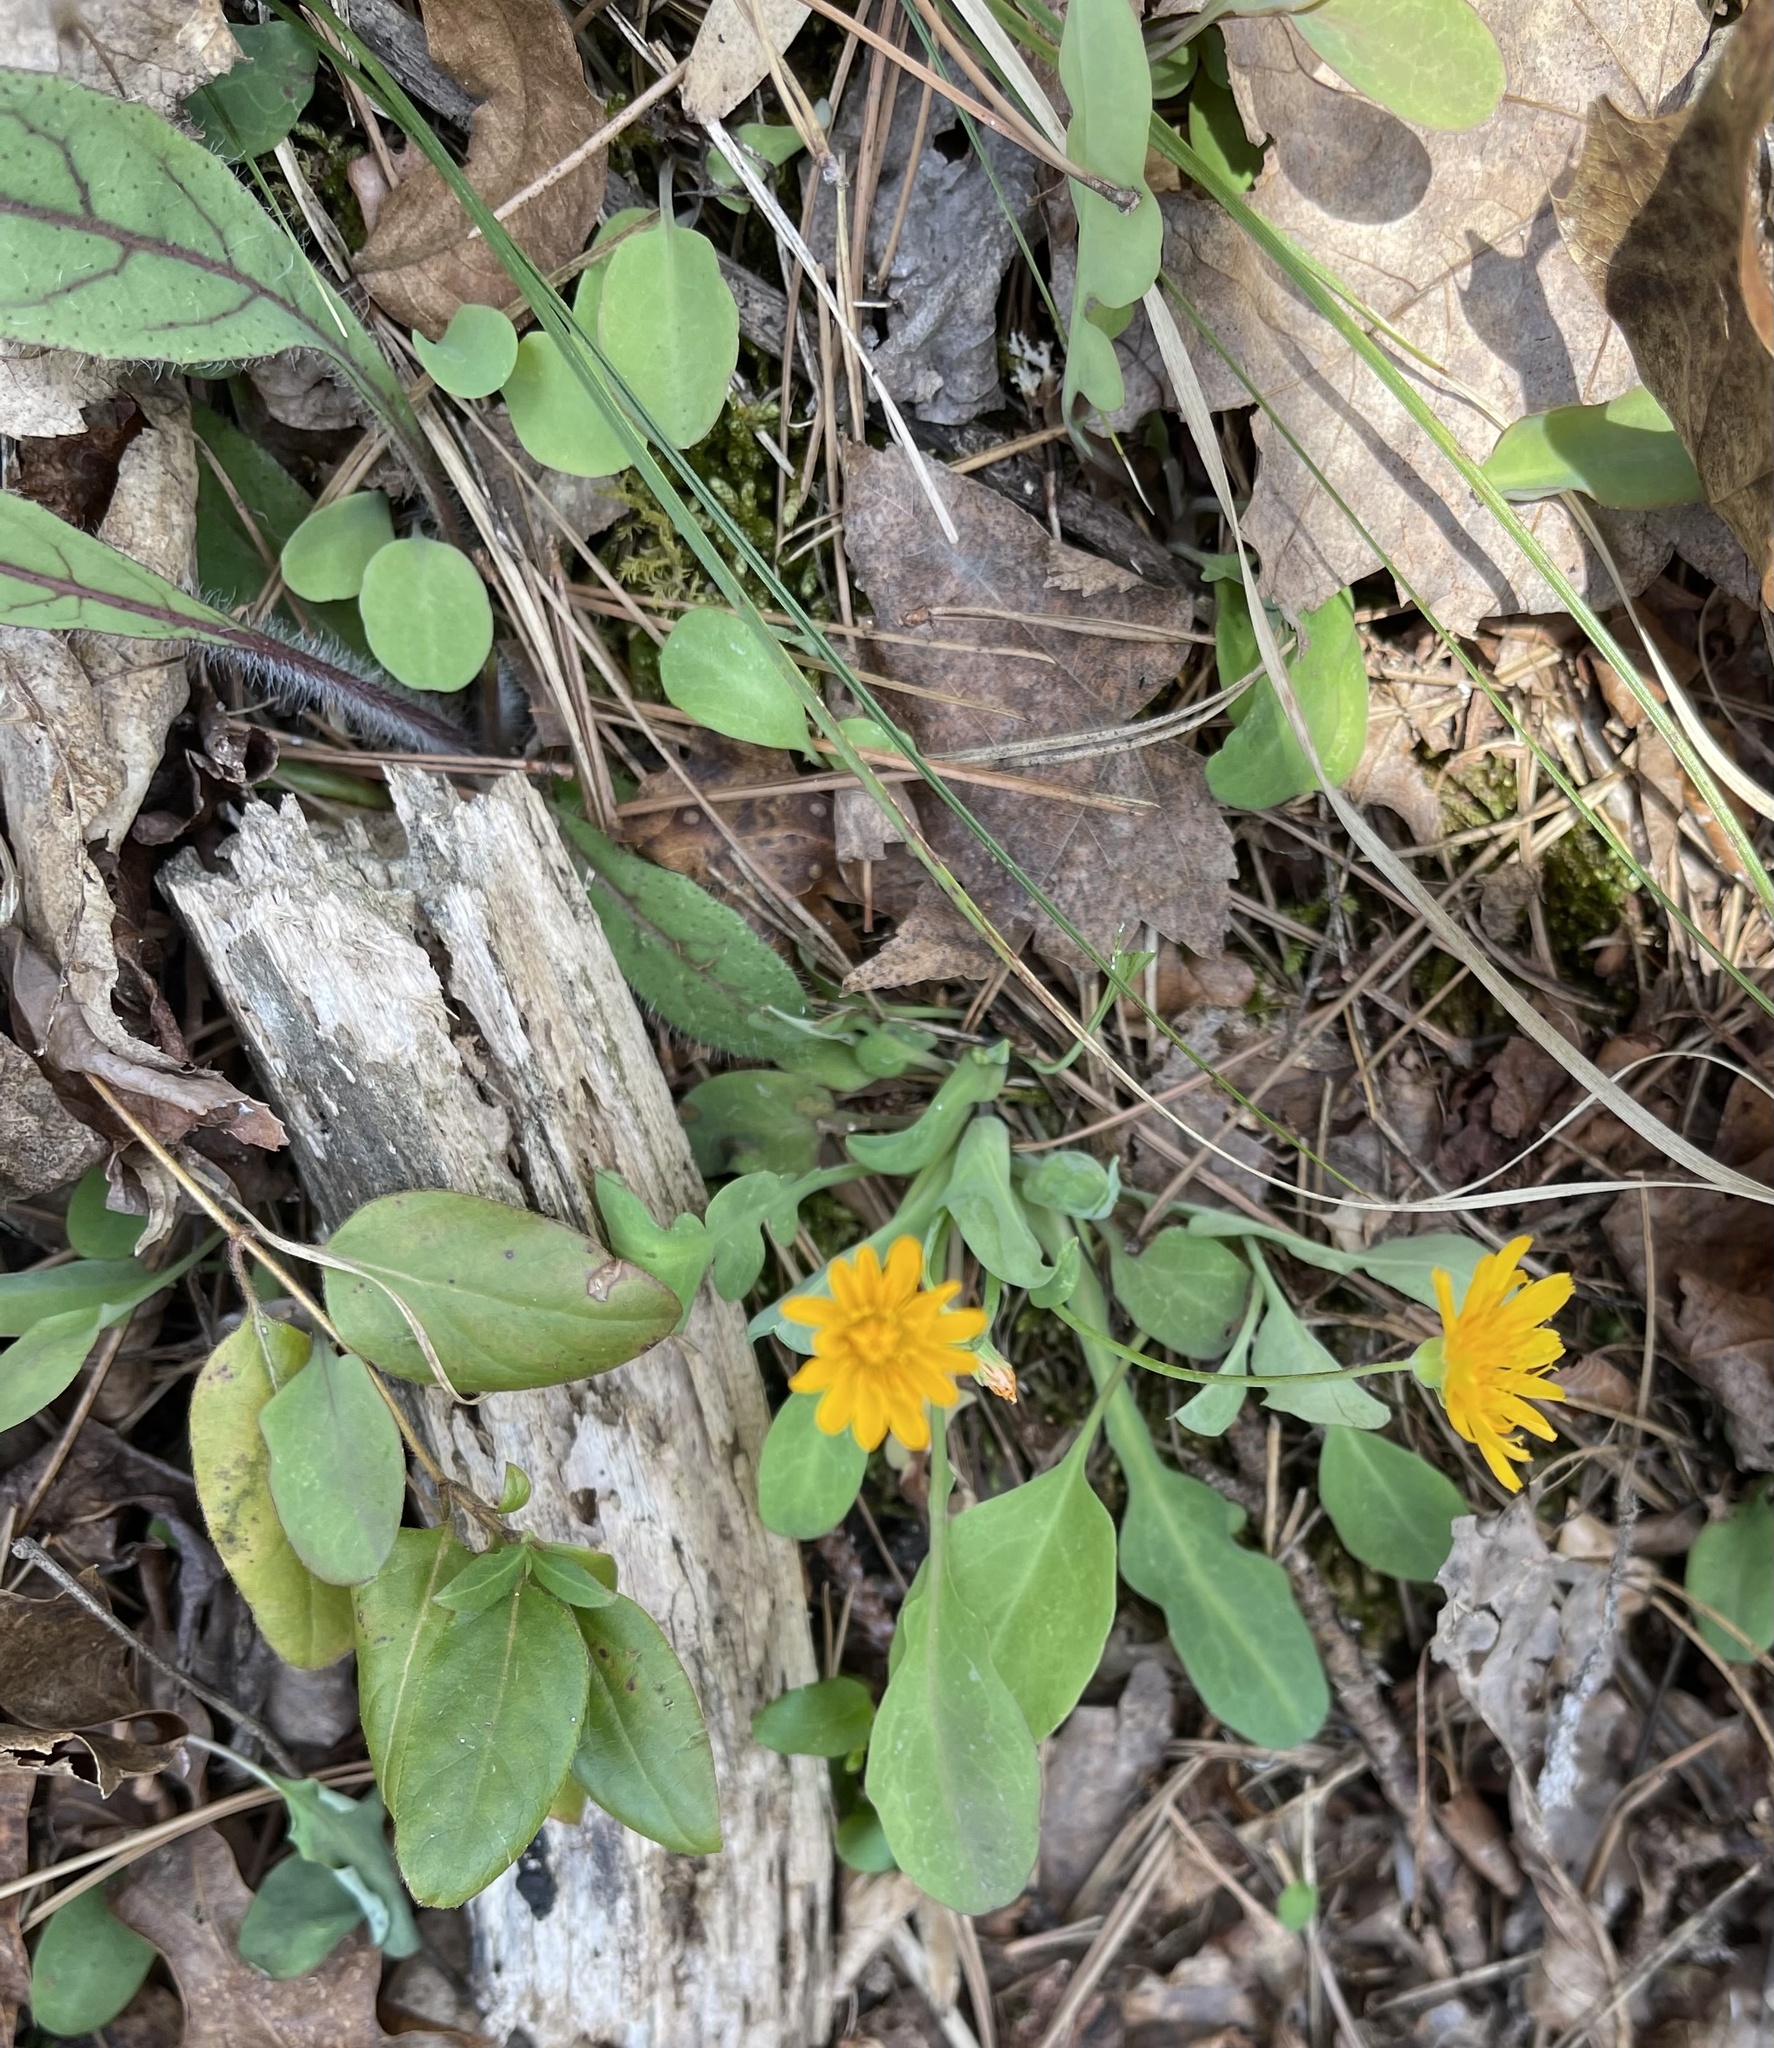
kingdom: Plantae
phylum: Tracheophyta
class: Magnoliopsida
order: Asterales
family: Asteraceae
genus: Krigia
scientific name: Krigia biflora
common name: Orange dwarf-dandelion
